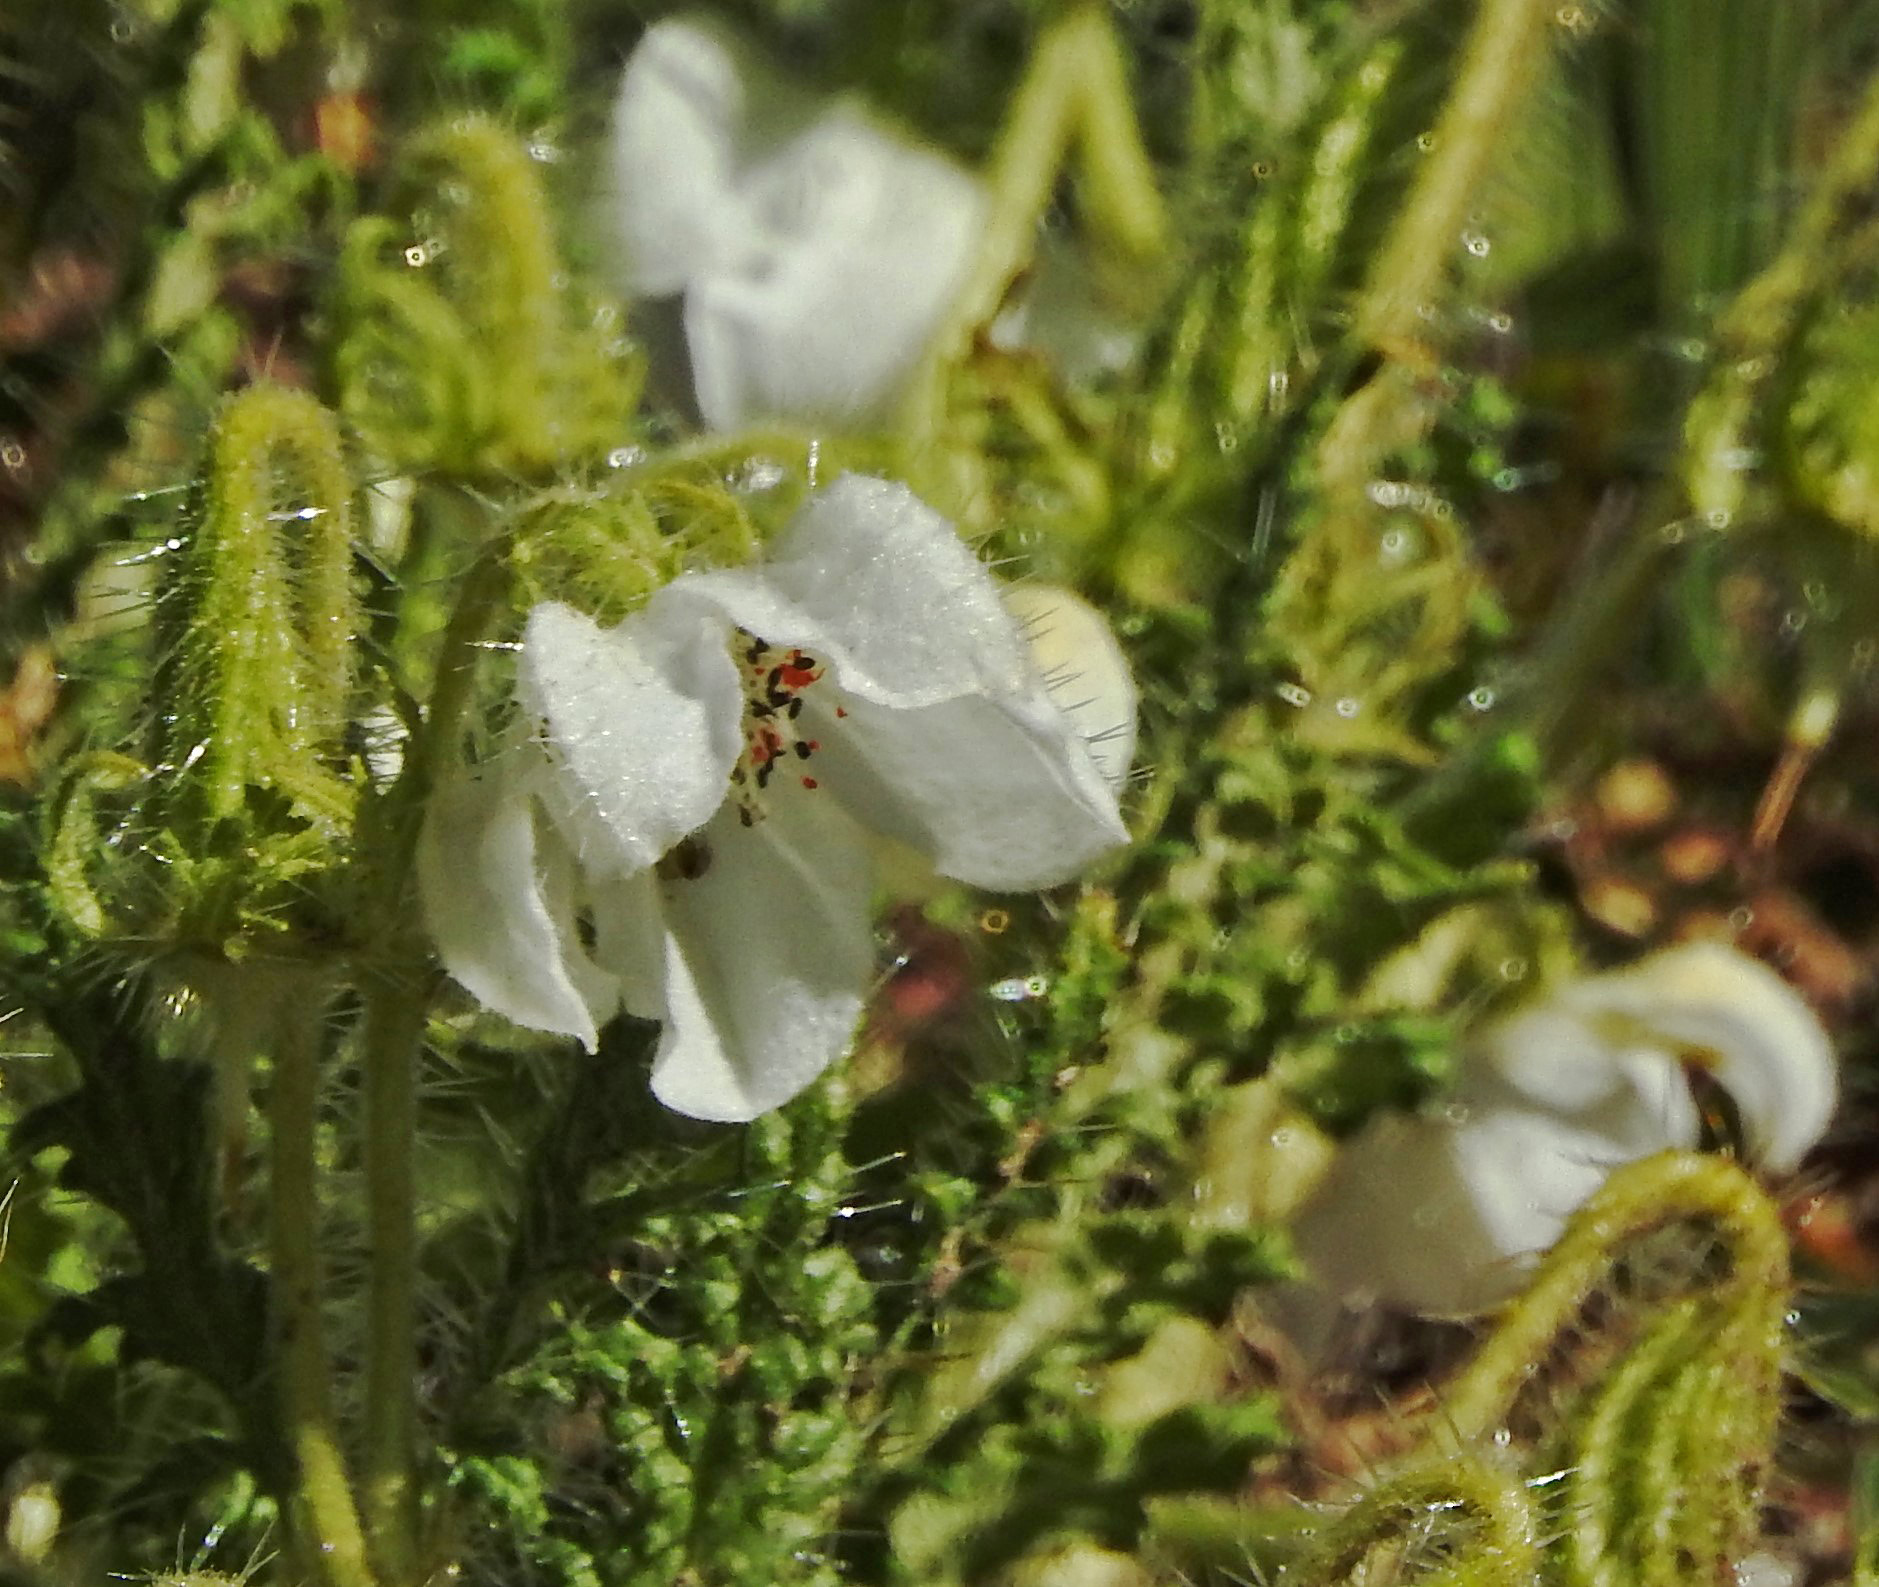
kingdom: Plantae
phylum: Tracheophyta
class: Magnoliopsida
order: Cornales
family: Loasaceae
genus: Caiophora
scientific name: Caiophora clavata
